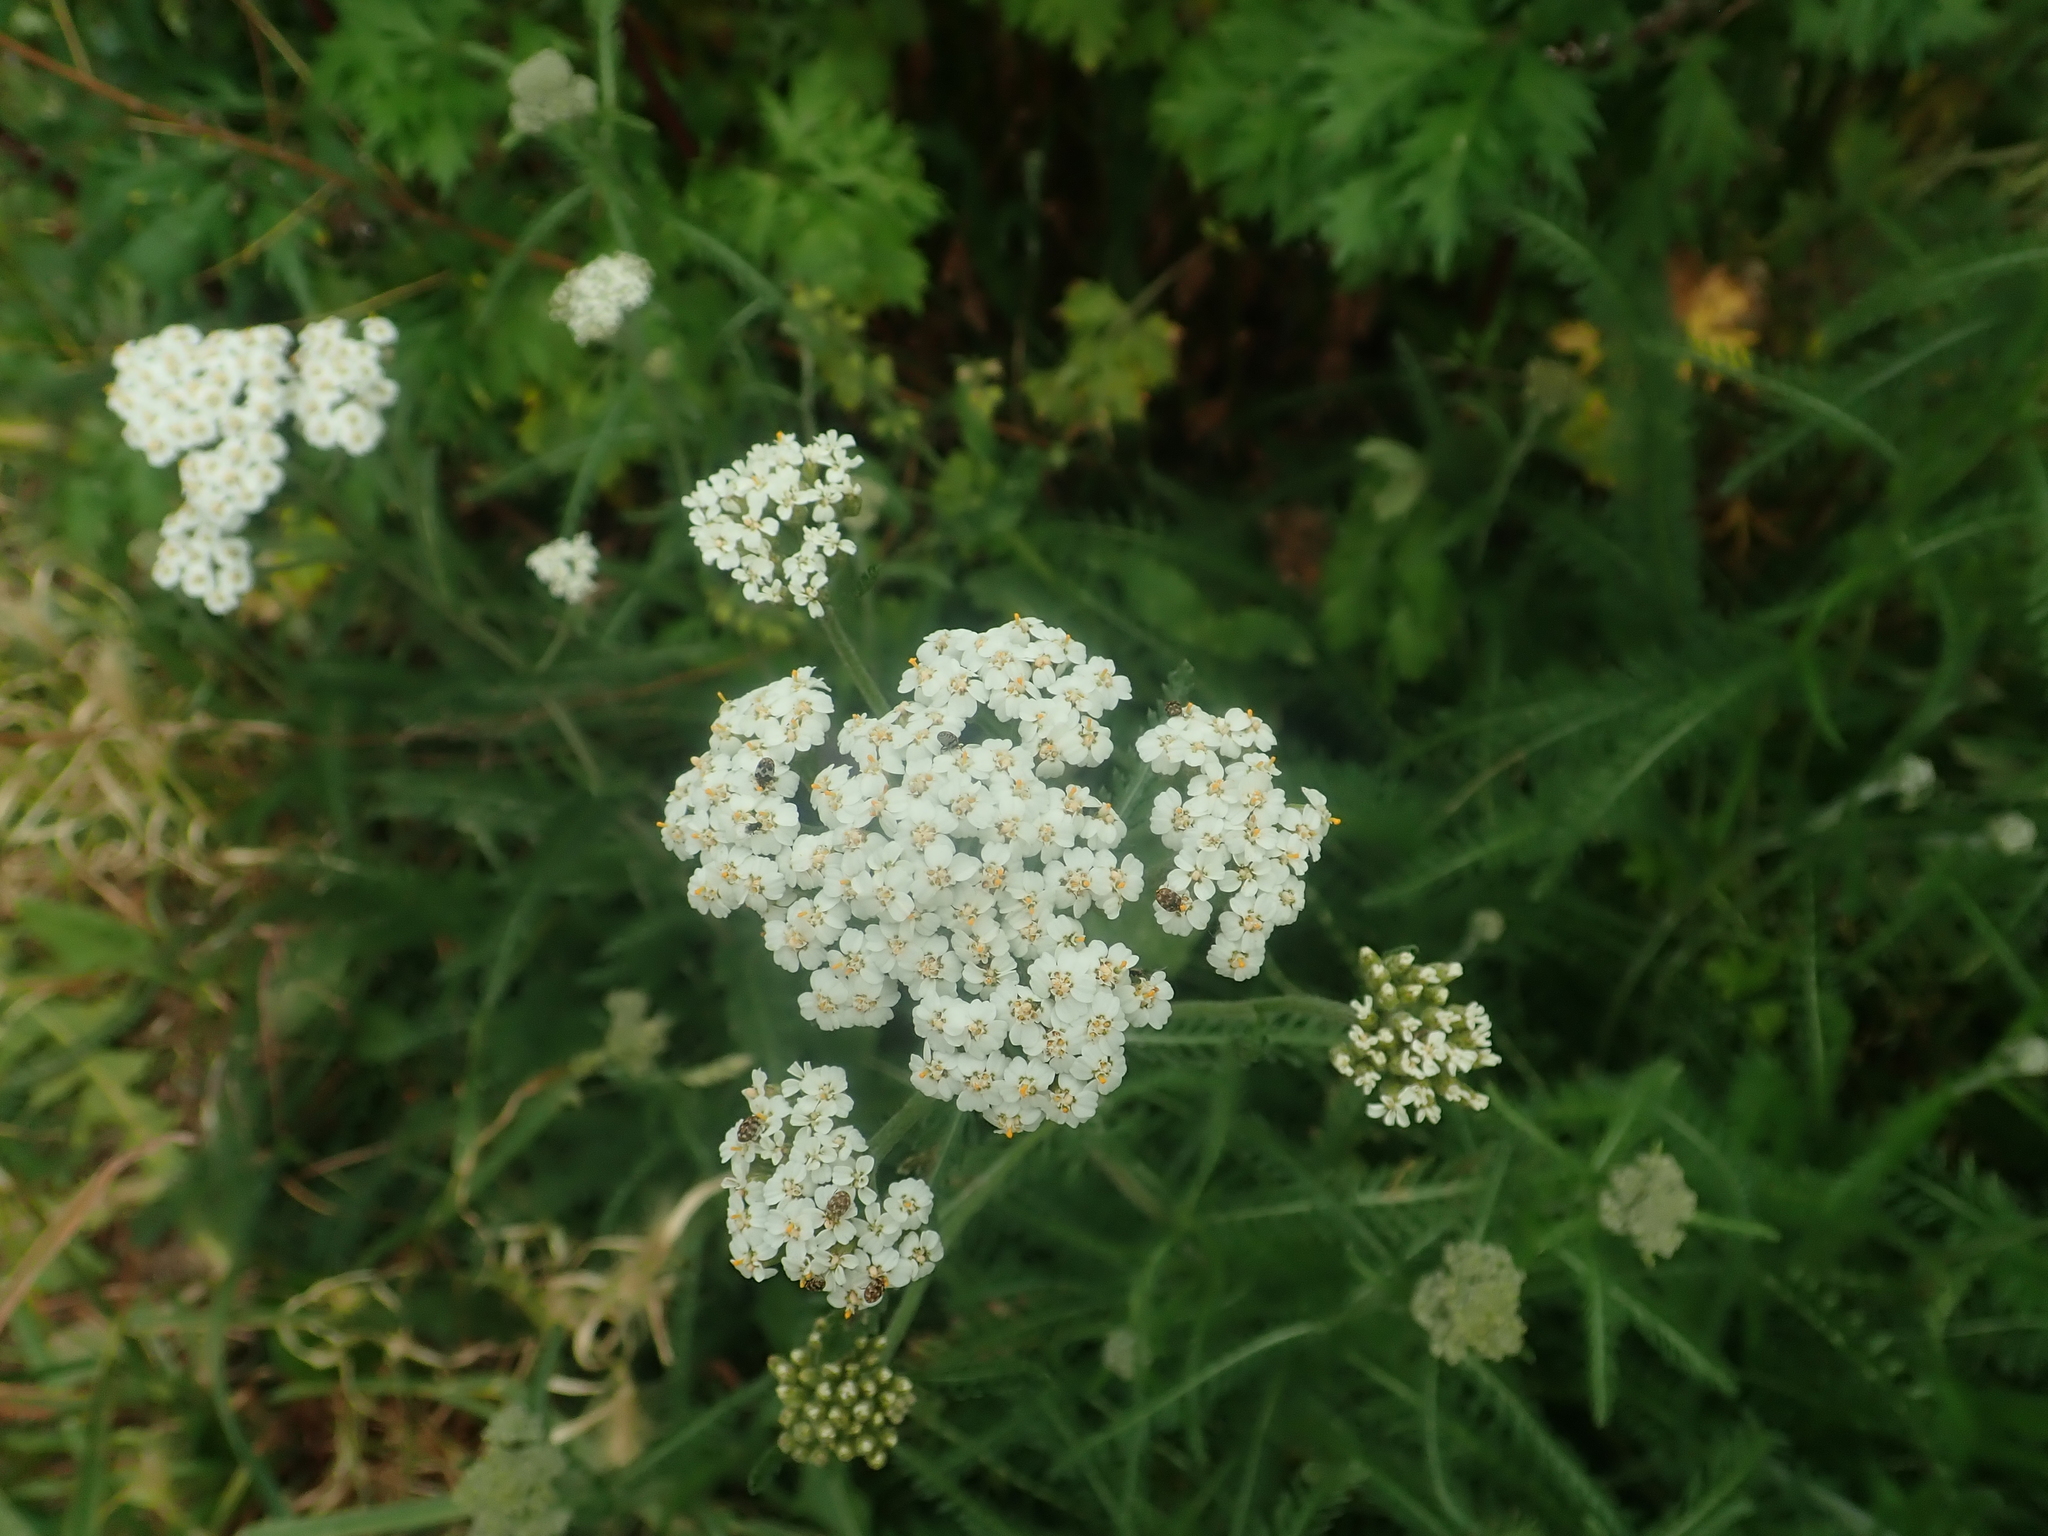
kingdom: Plantae
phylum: Tracheophyta
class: Magnoliopsida
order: Asterales
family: Asteraceae
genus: Achillea
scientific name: Achillea millefolium
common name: Yarrow
